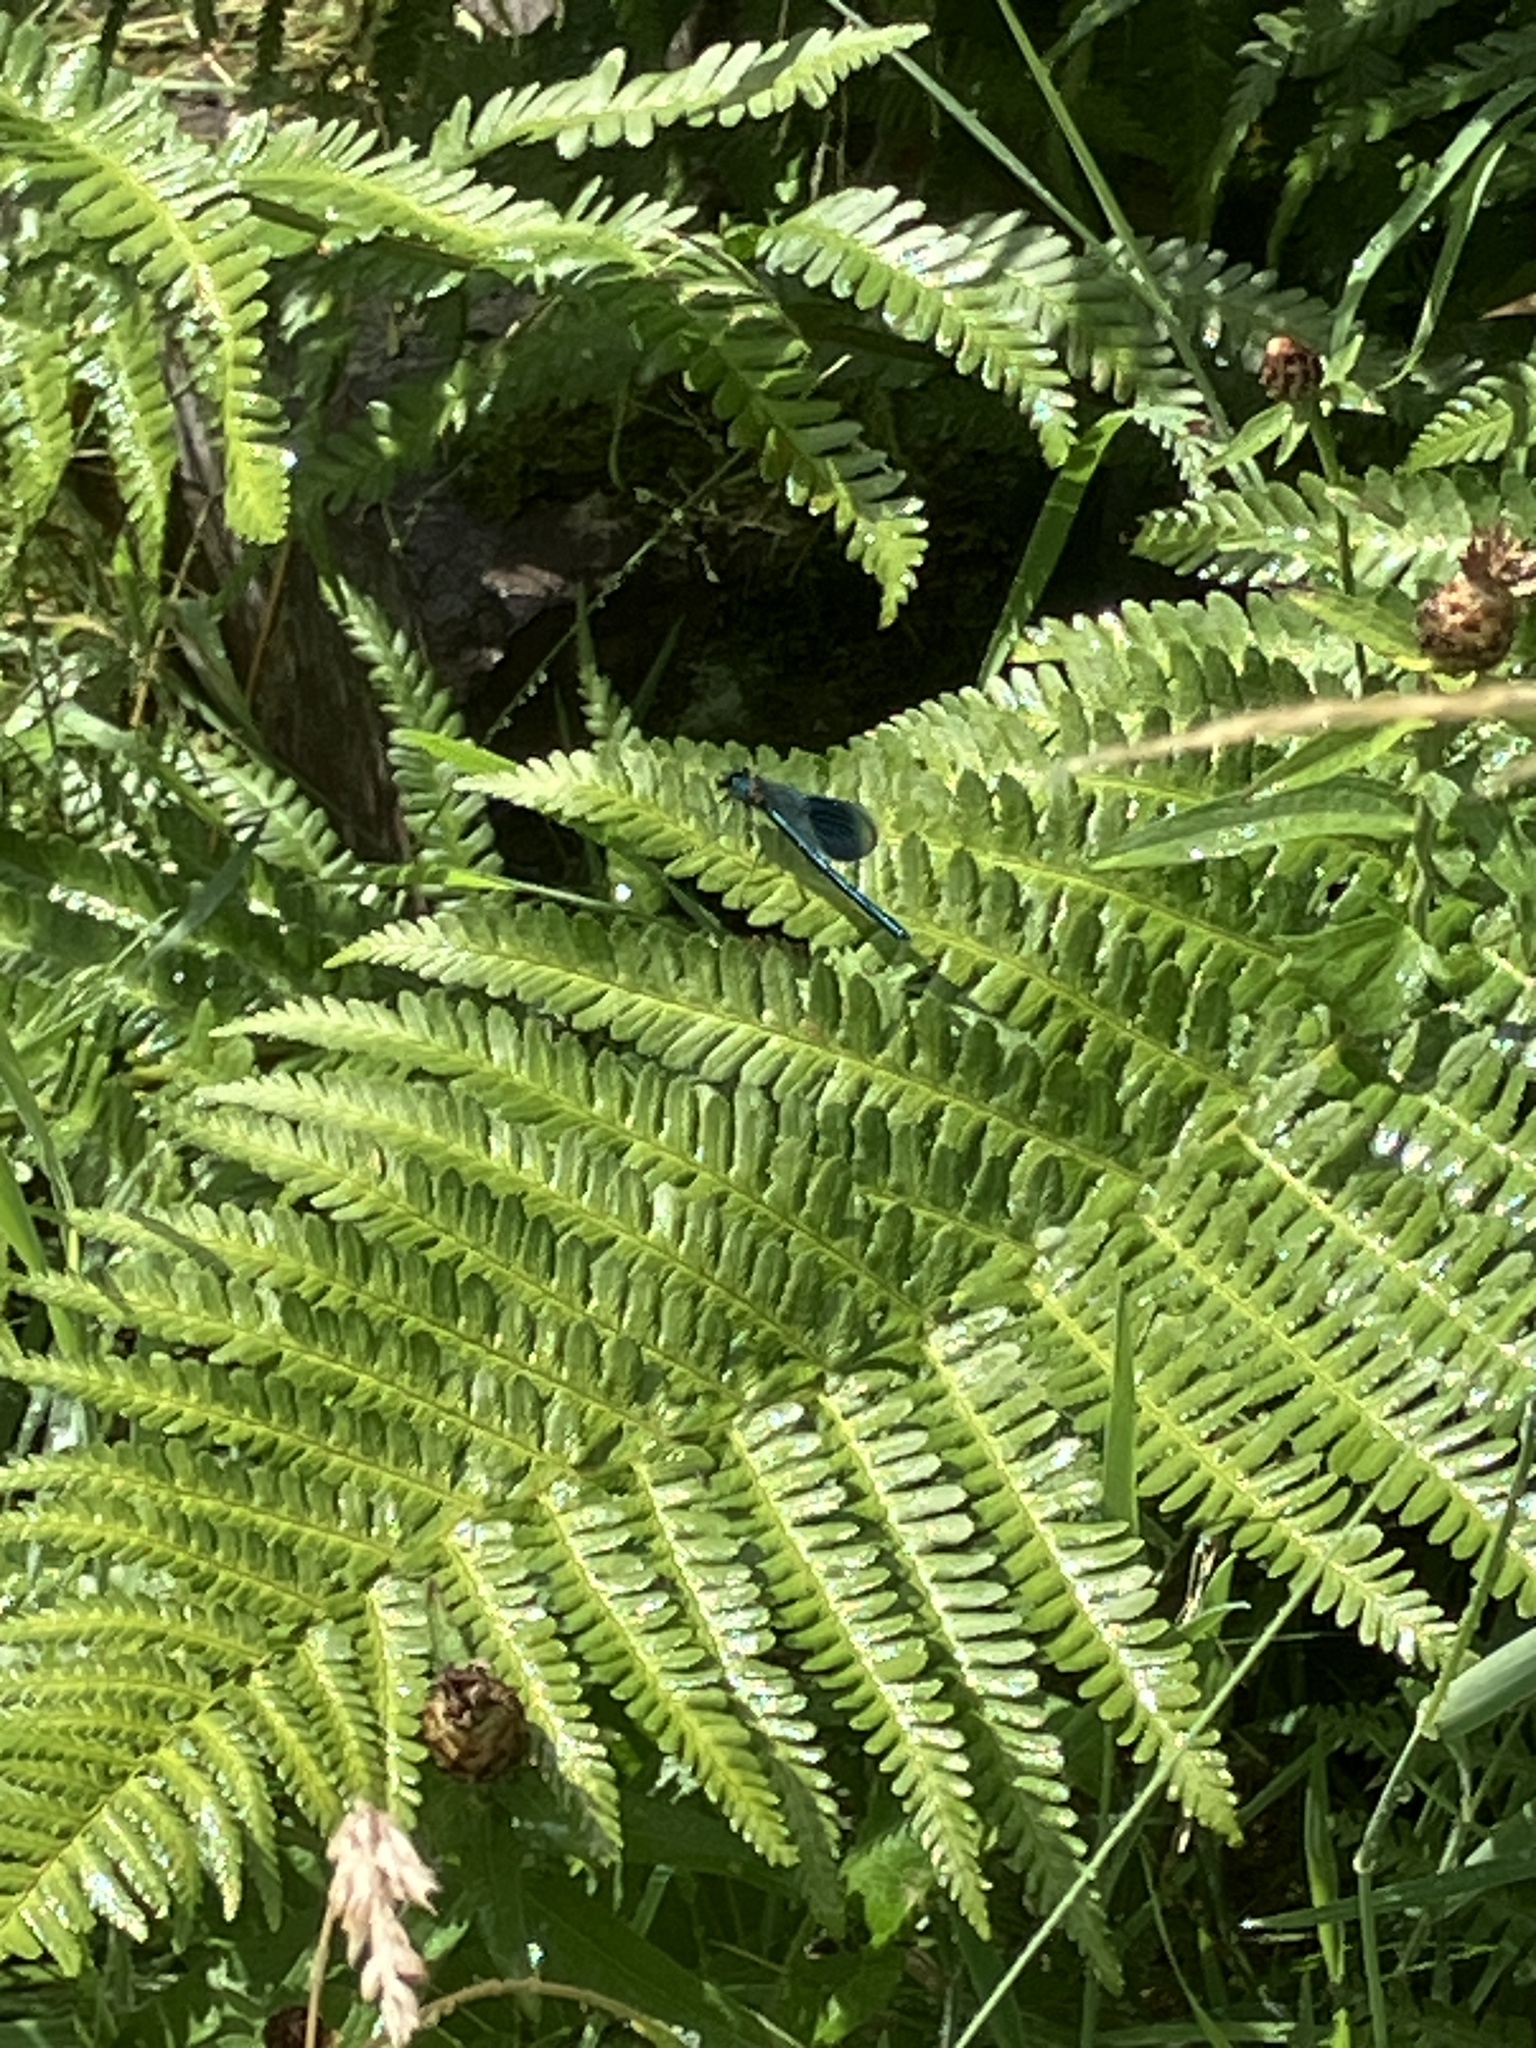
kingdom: Animalia
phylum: Arthropoda
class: Insecta
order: Odonata
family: Calopterygidae
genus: Calopteryx
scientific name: Calopteryx splendens
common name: Banded demoiselle
